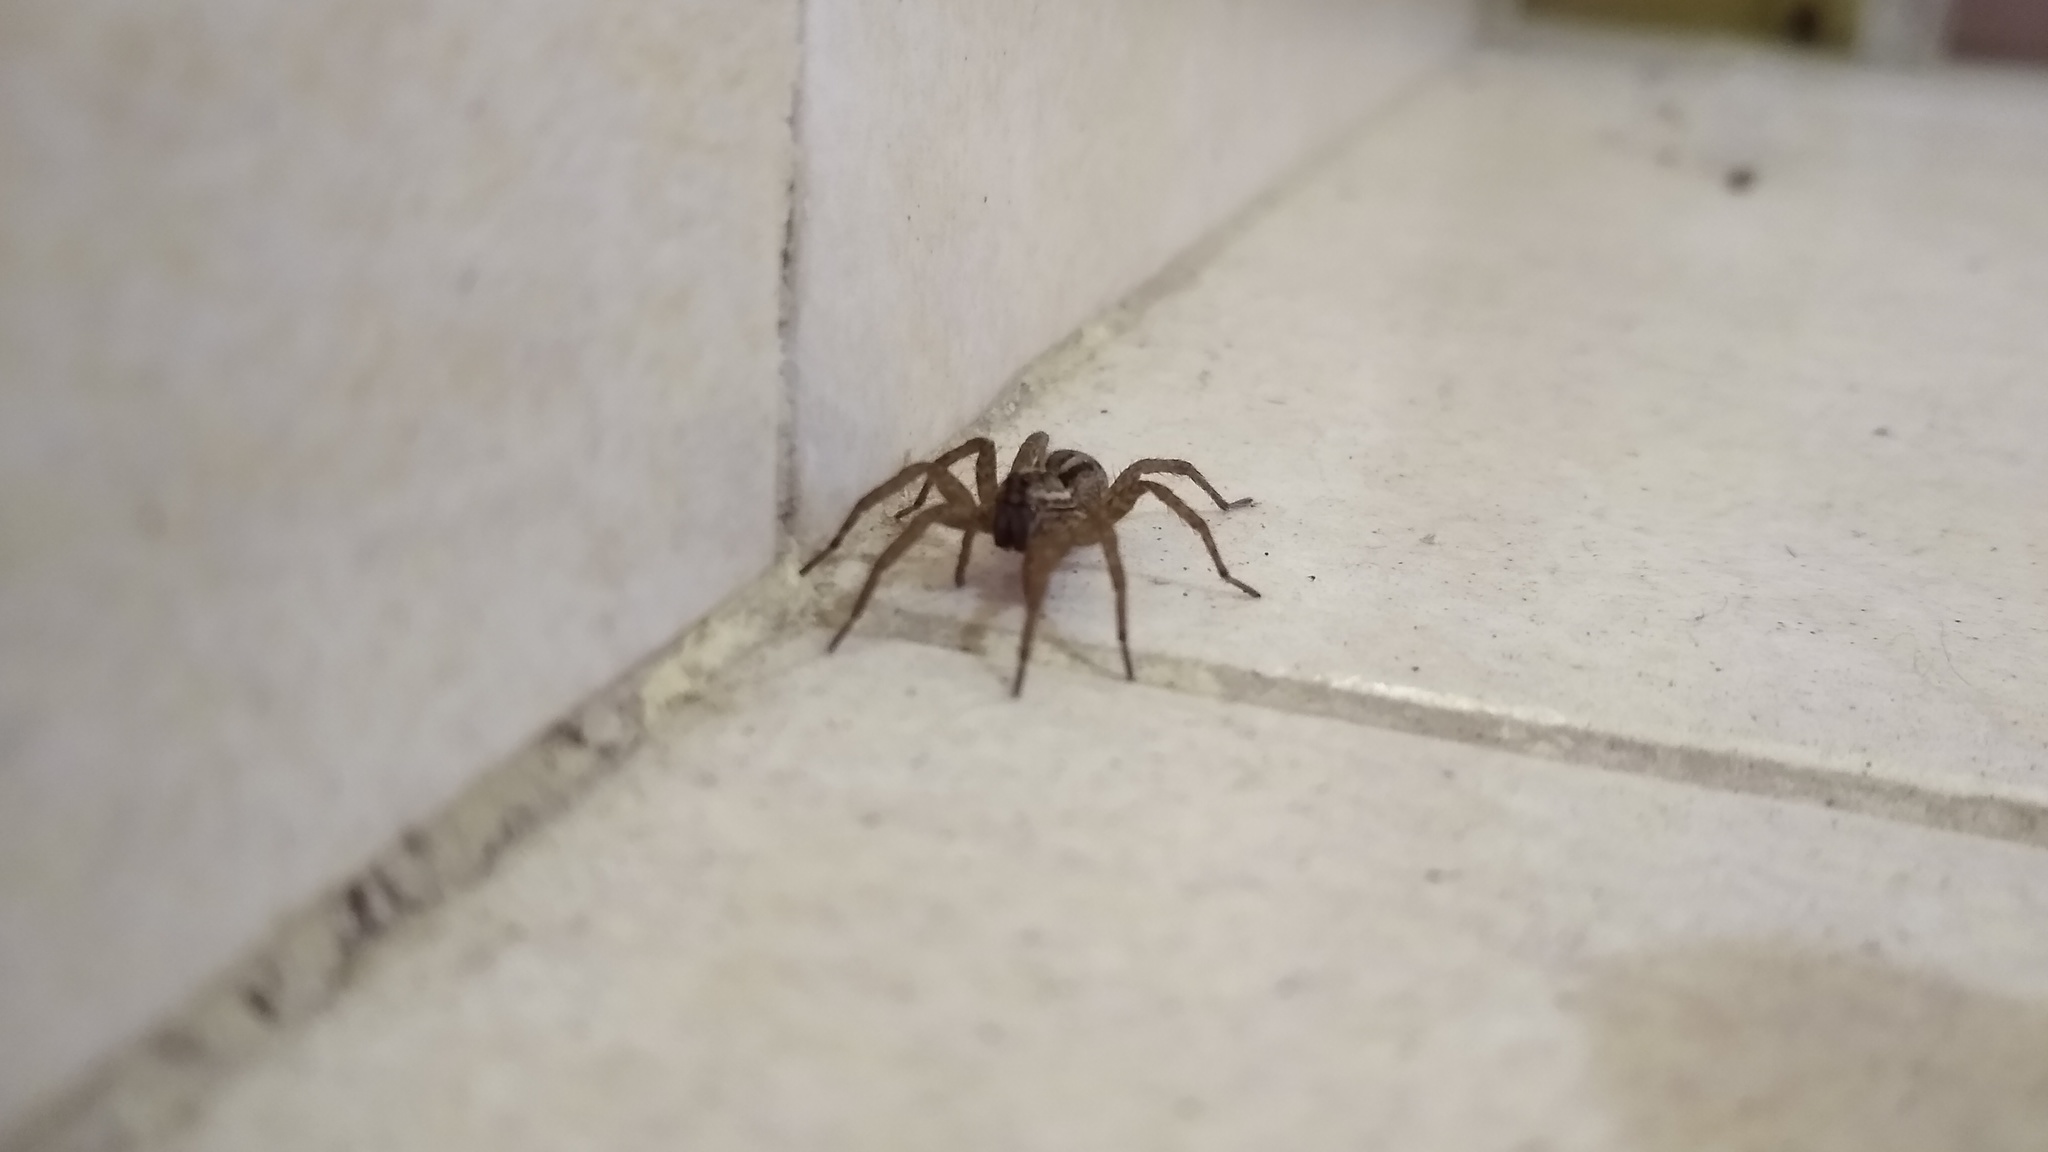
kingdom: Animalia
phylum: Arthropoda
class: Arachnida
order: Araneae
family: Lycosidae
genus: Alopecosa
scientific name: Alopecosa moesta
